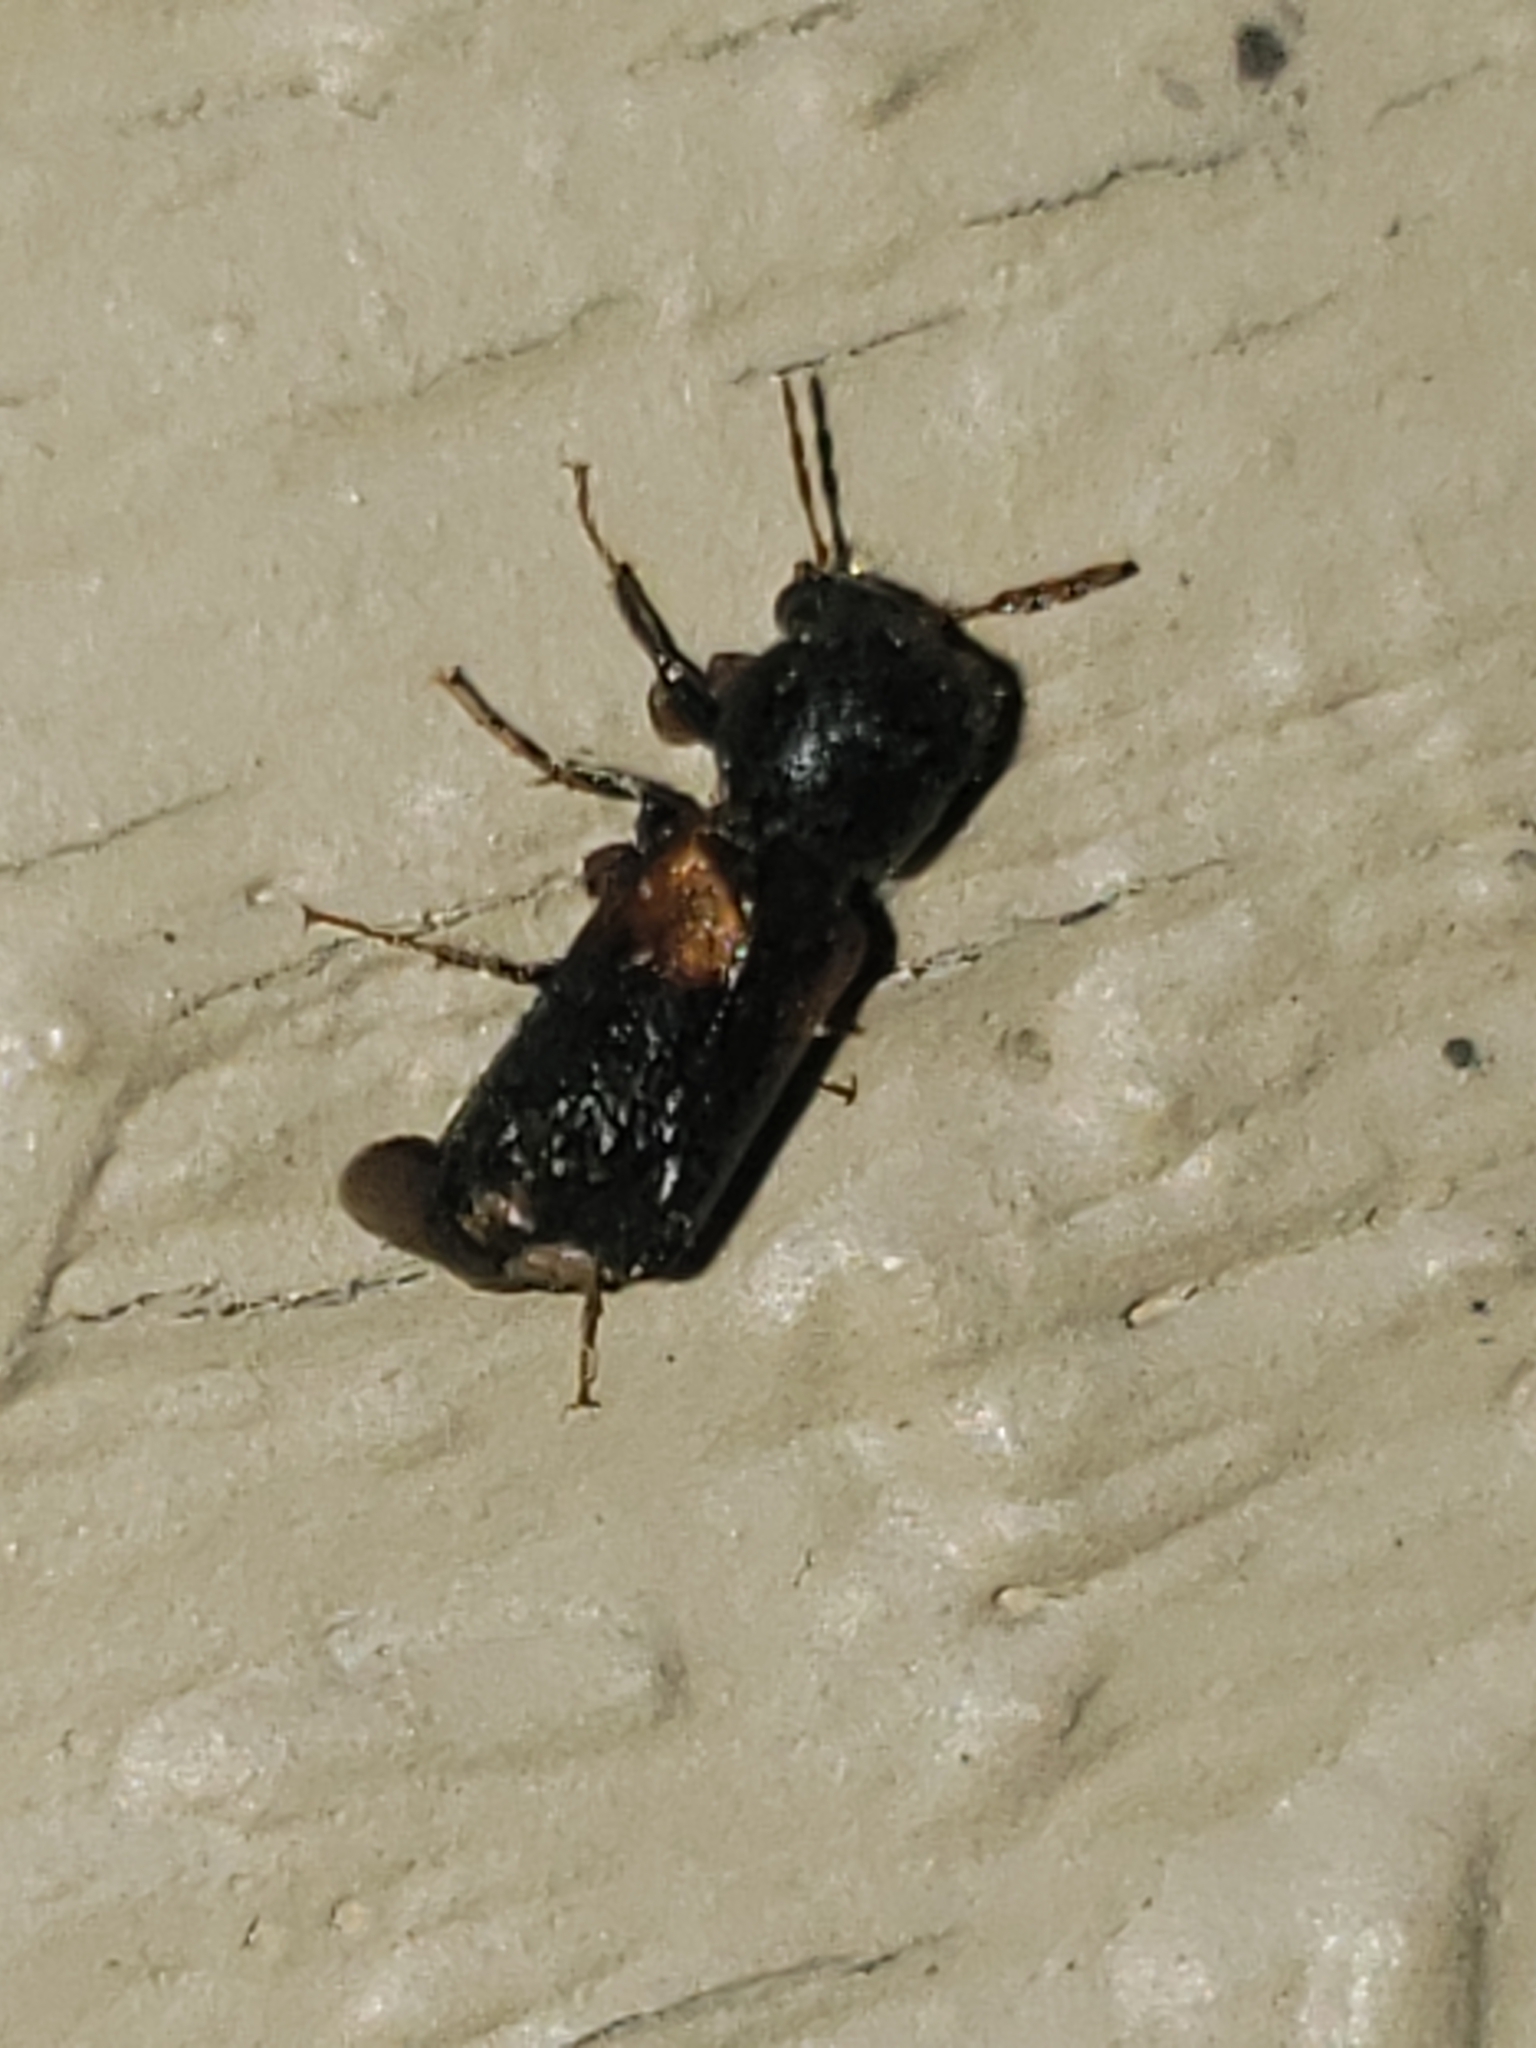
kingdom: Animalia
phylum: Arthropoda
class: Insecta
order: Coleoptera
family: Bostrichidae
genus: Xylobiops
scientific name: Xylobiops basilaris
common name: Red-shouldered bostrichid
